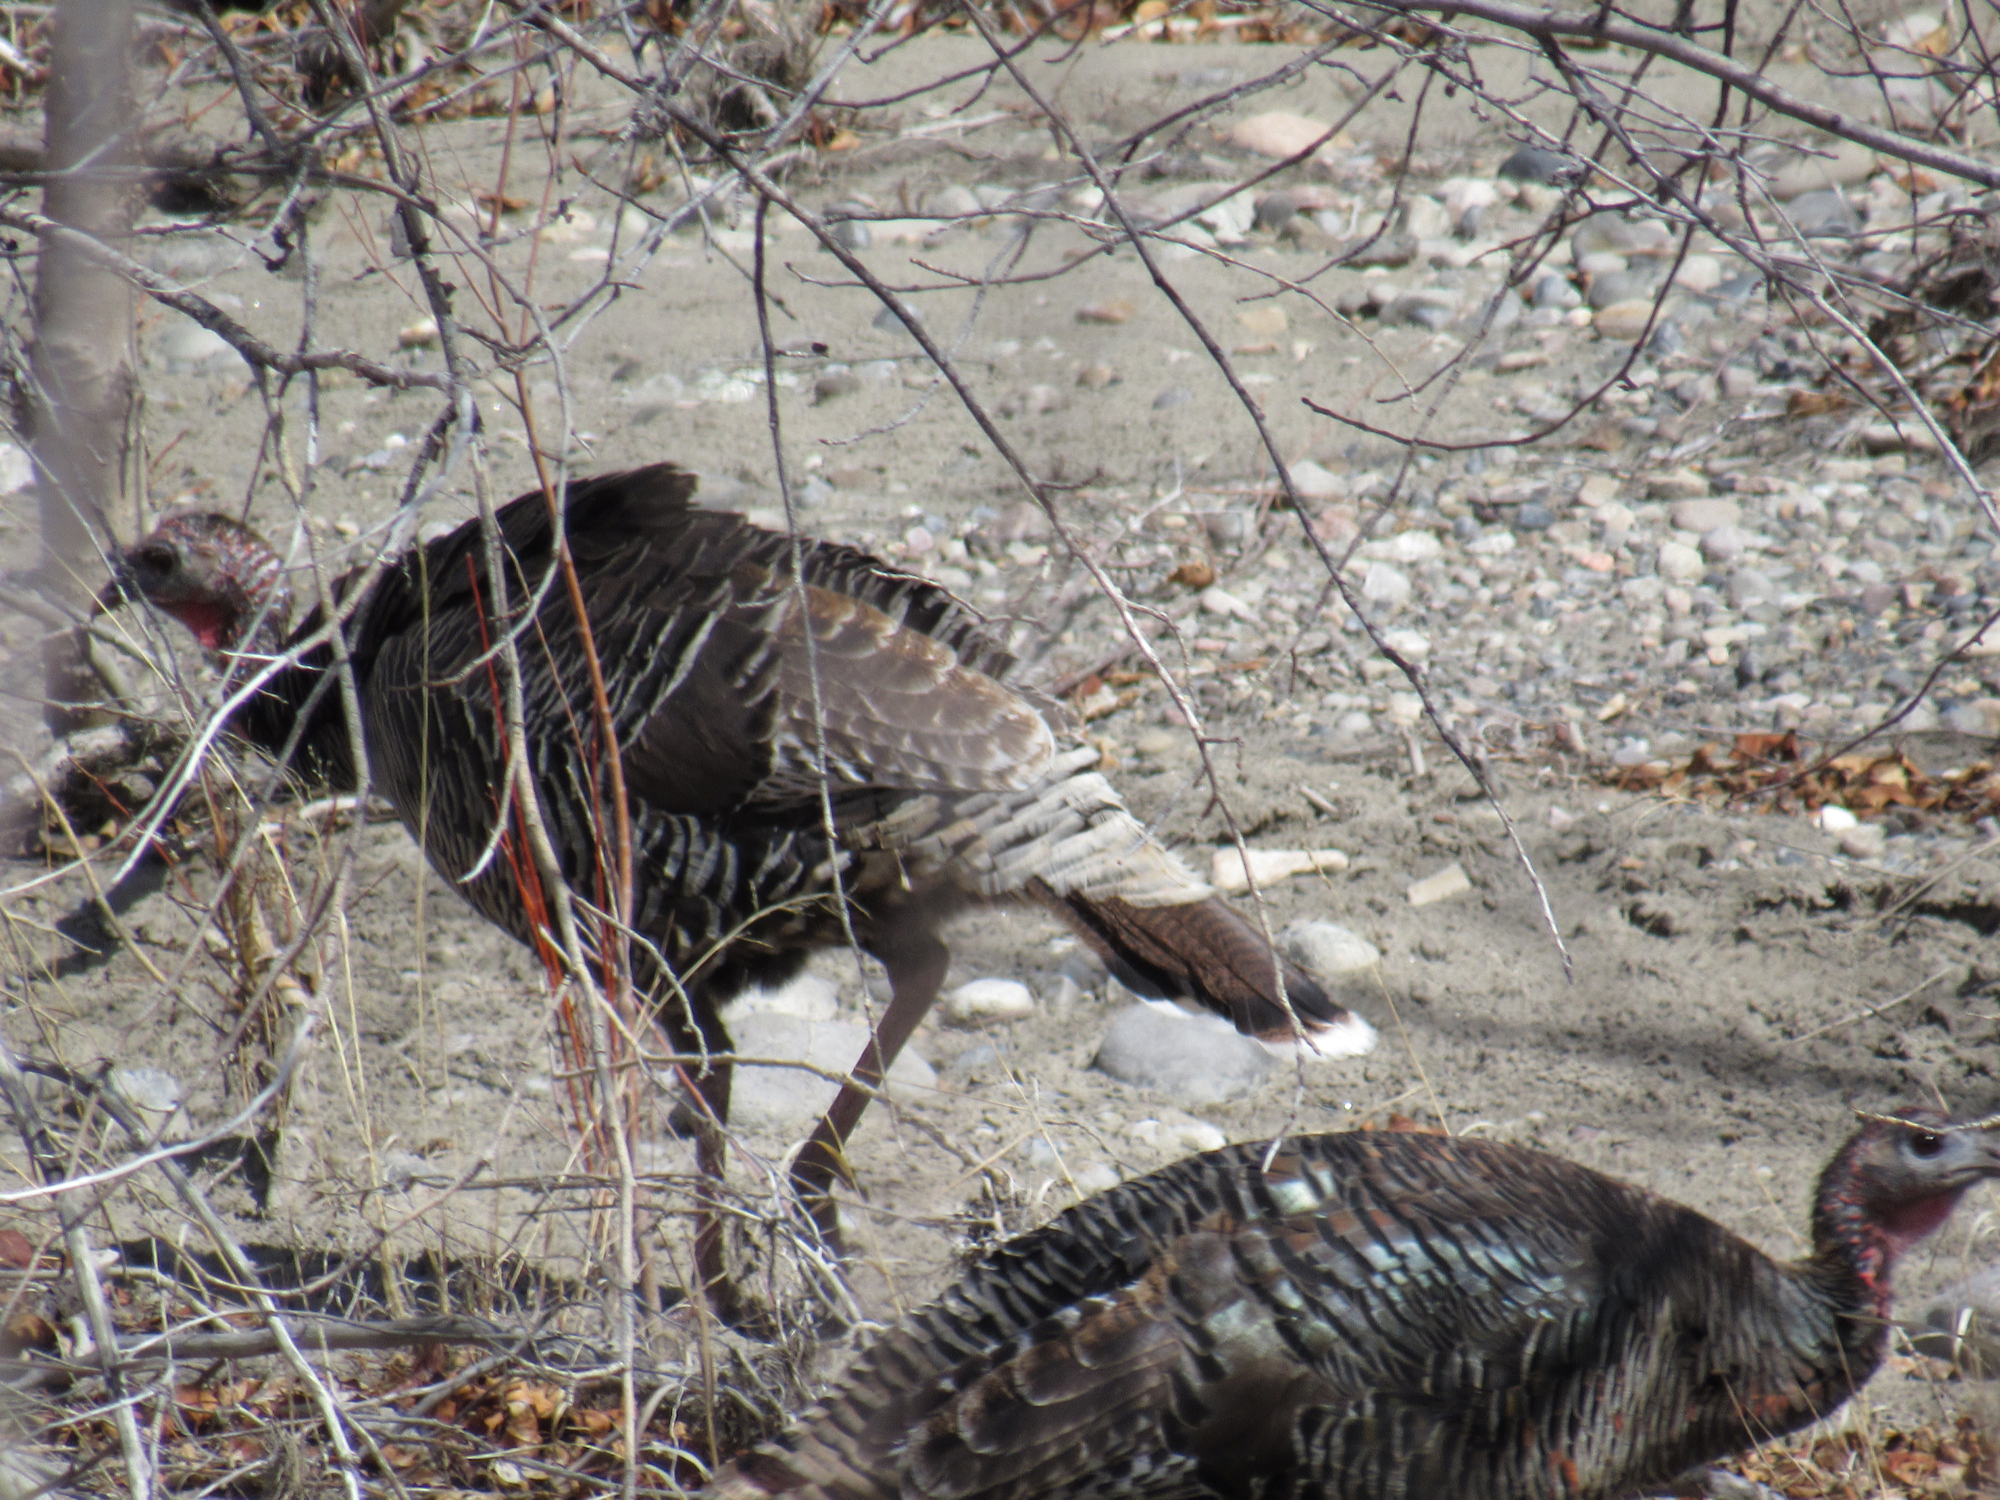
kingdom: Animalia
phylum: Chordata
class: Aves
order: Galliformes
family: Phasianidae
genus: Meleagris
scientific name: Meleagris gallopavo
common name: Wild turkey
